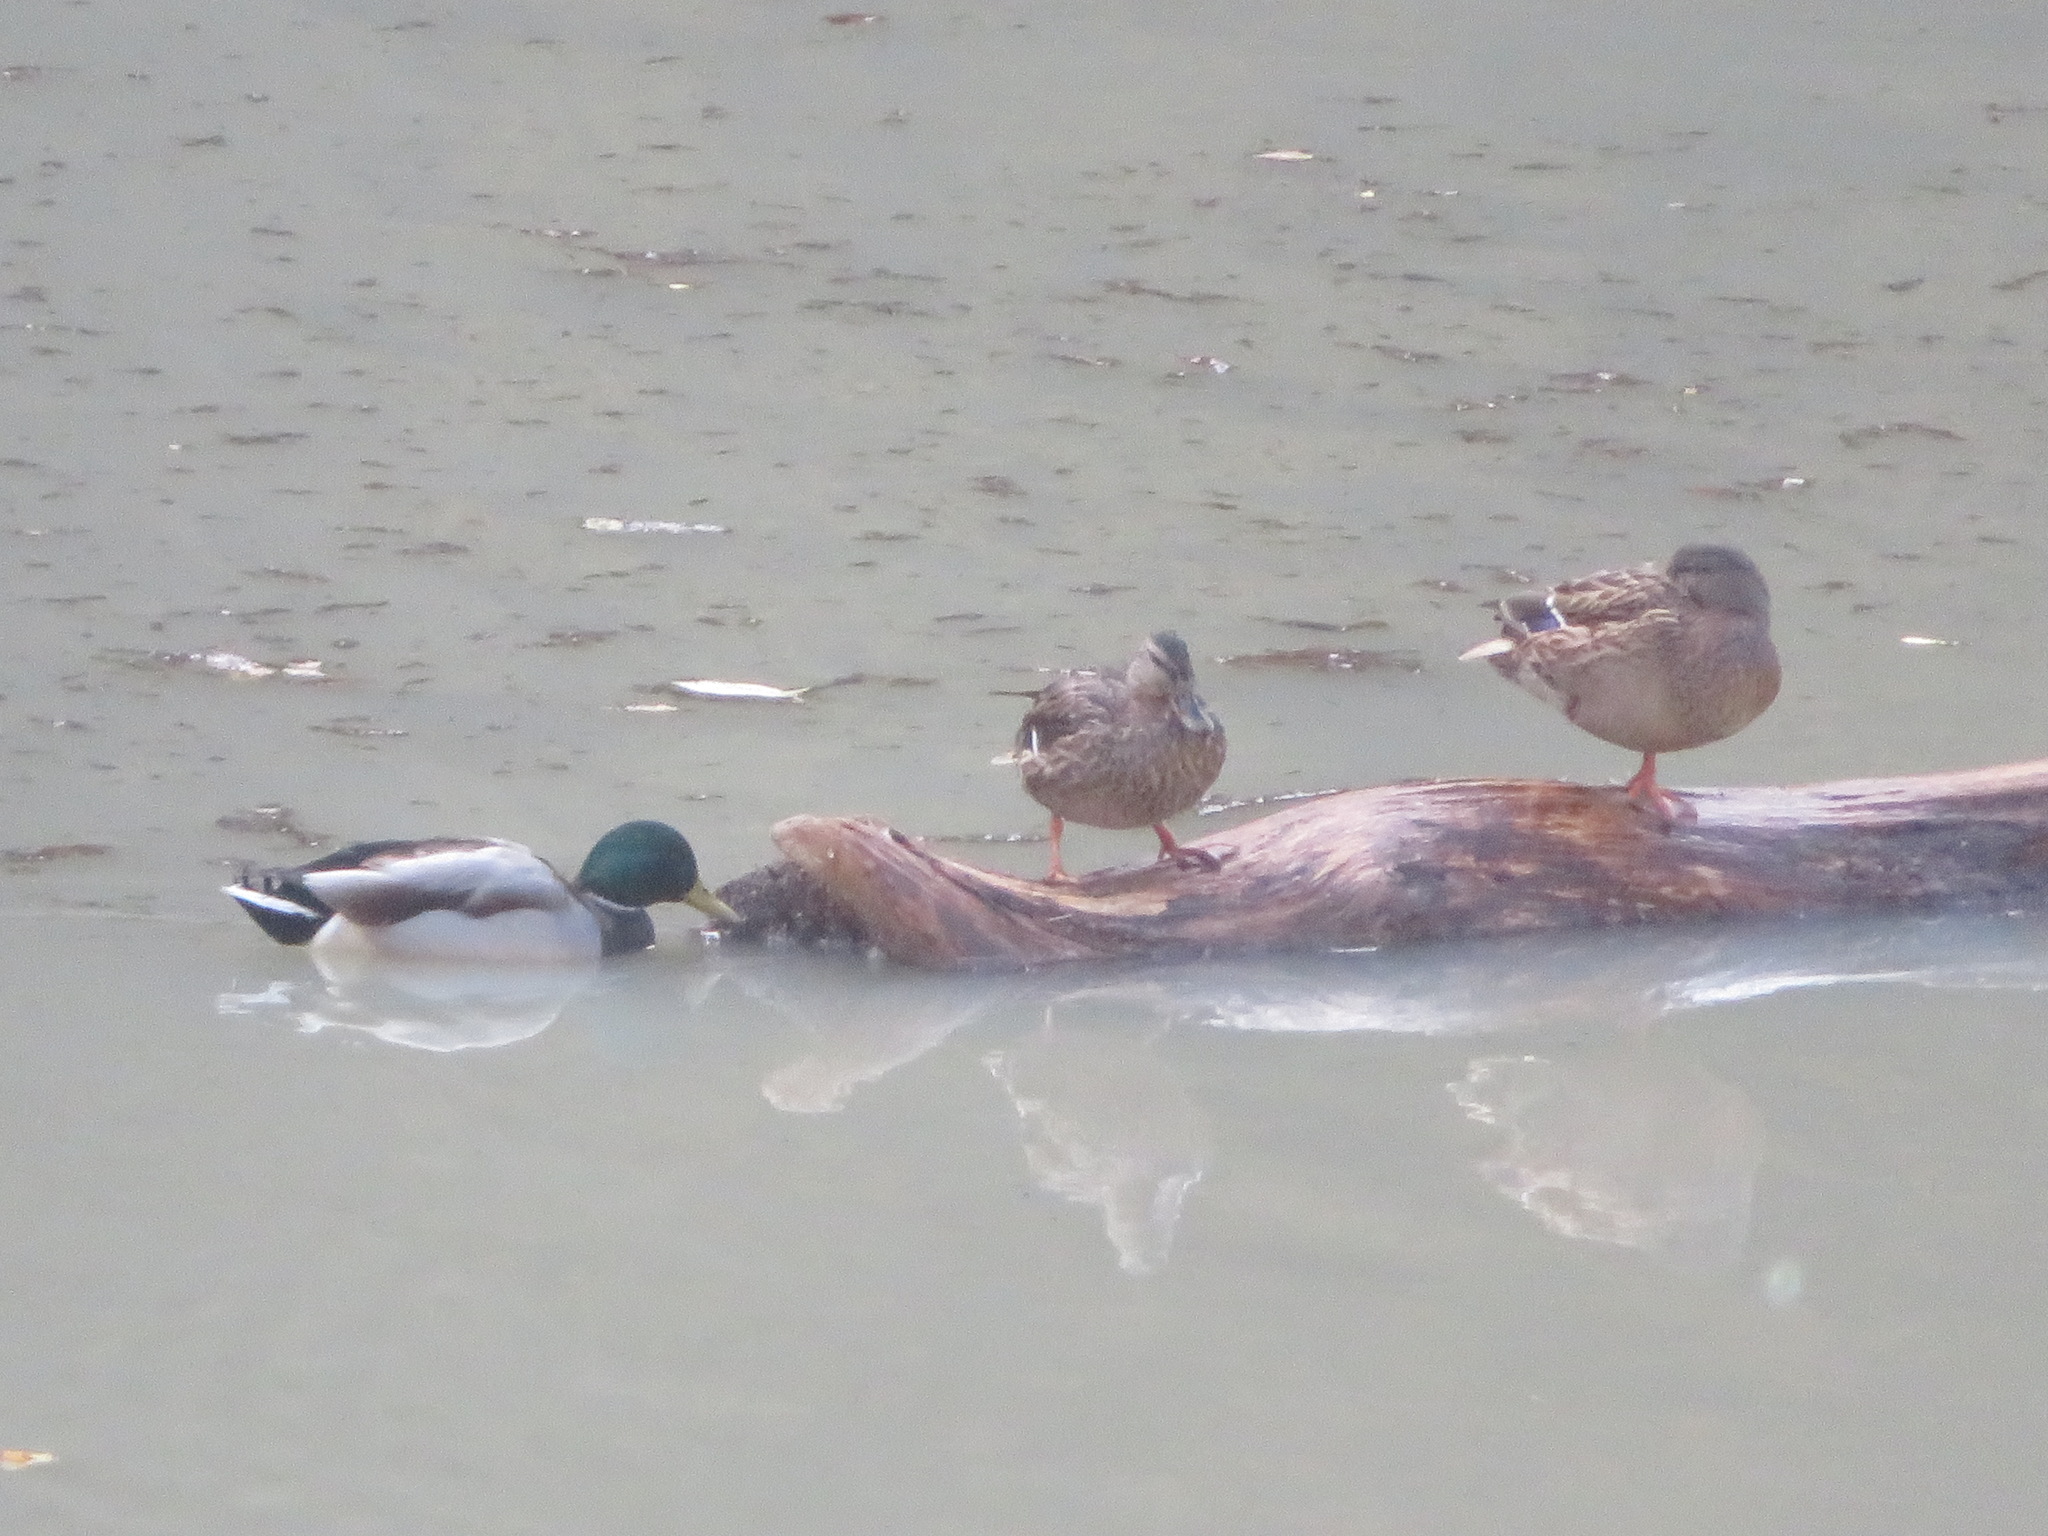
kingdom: Animalia
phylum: Chordata
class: Aves
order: Anseriformes
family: Anatidae
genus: Anas
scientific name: Anas platyrhynchos
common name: Mallard
